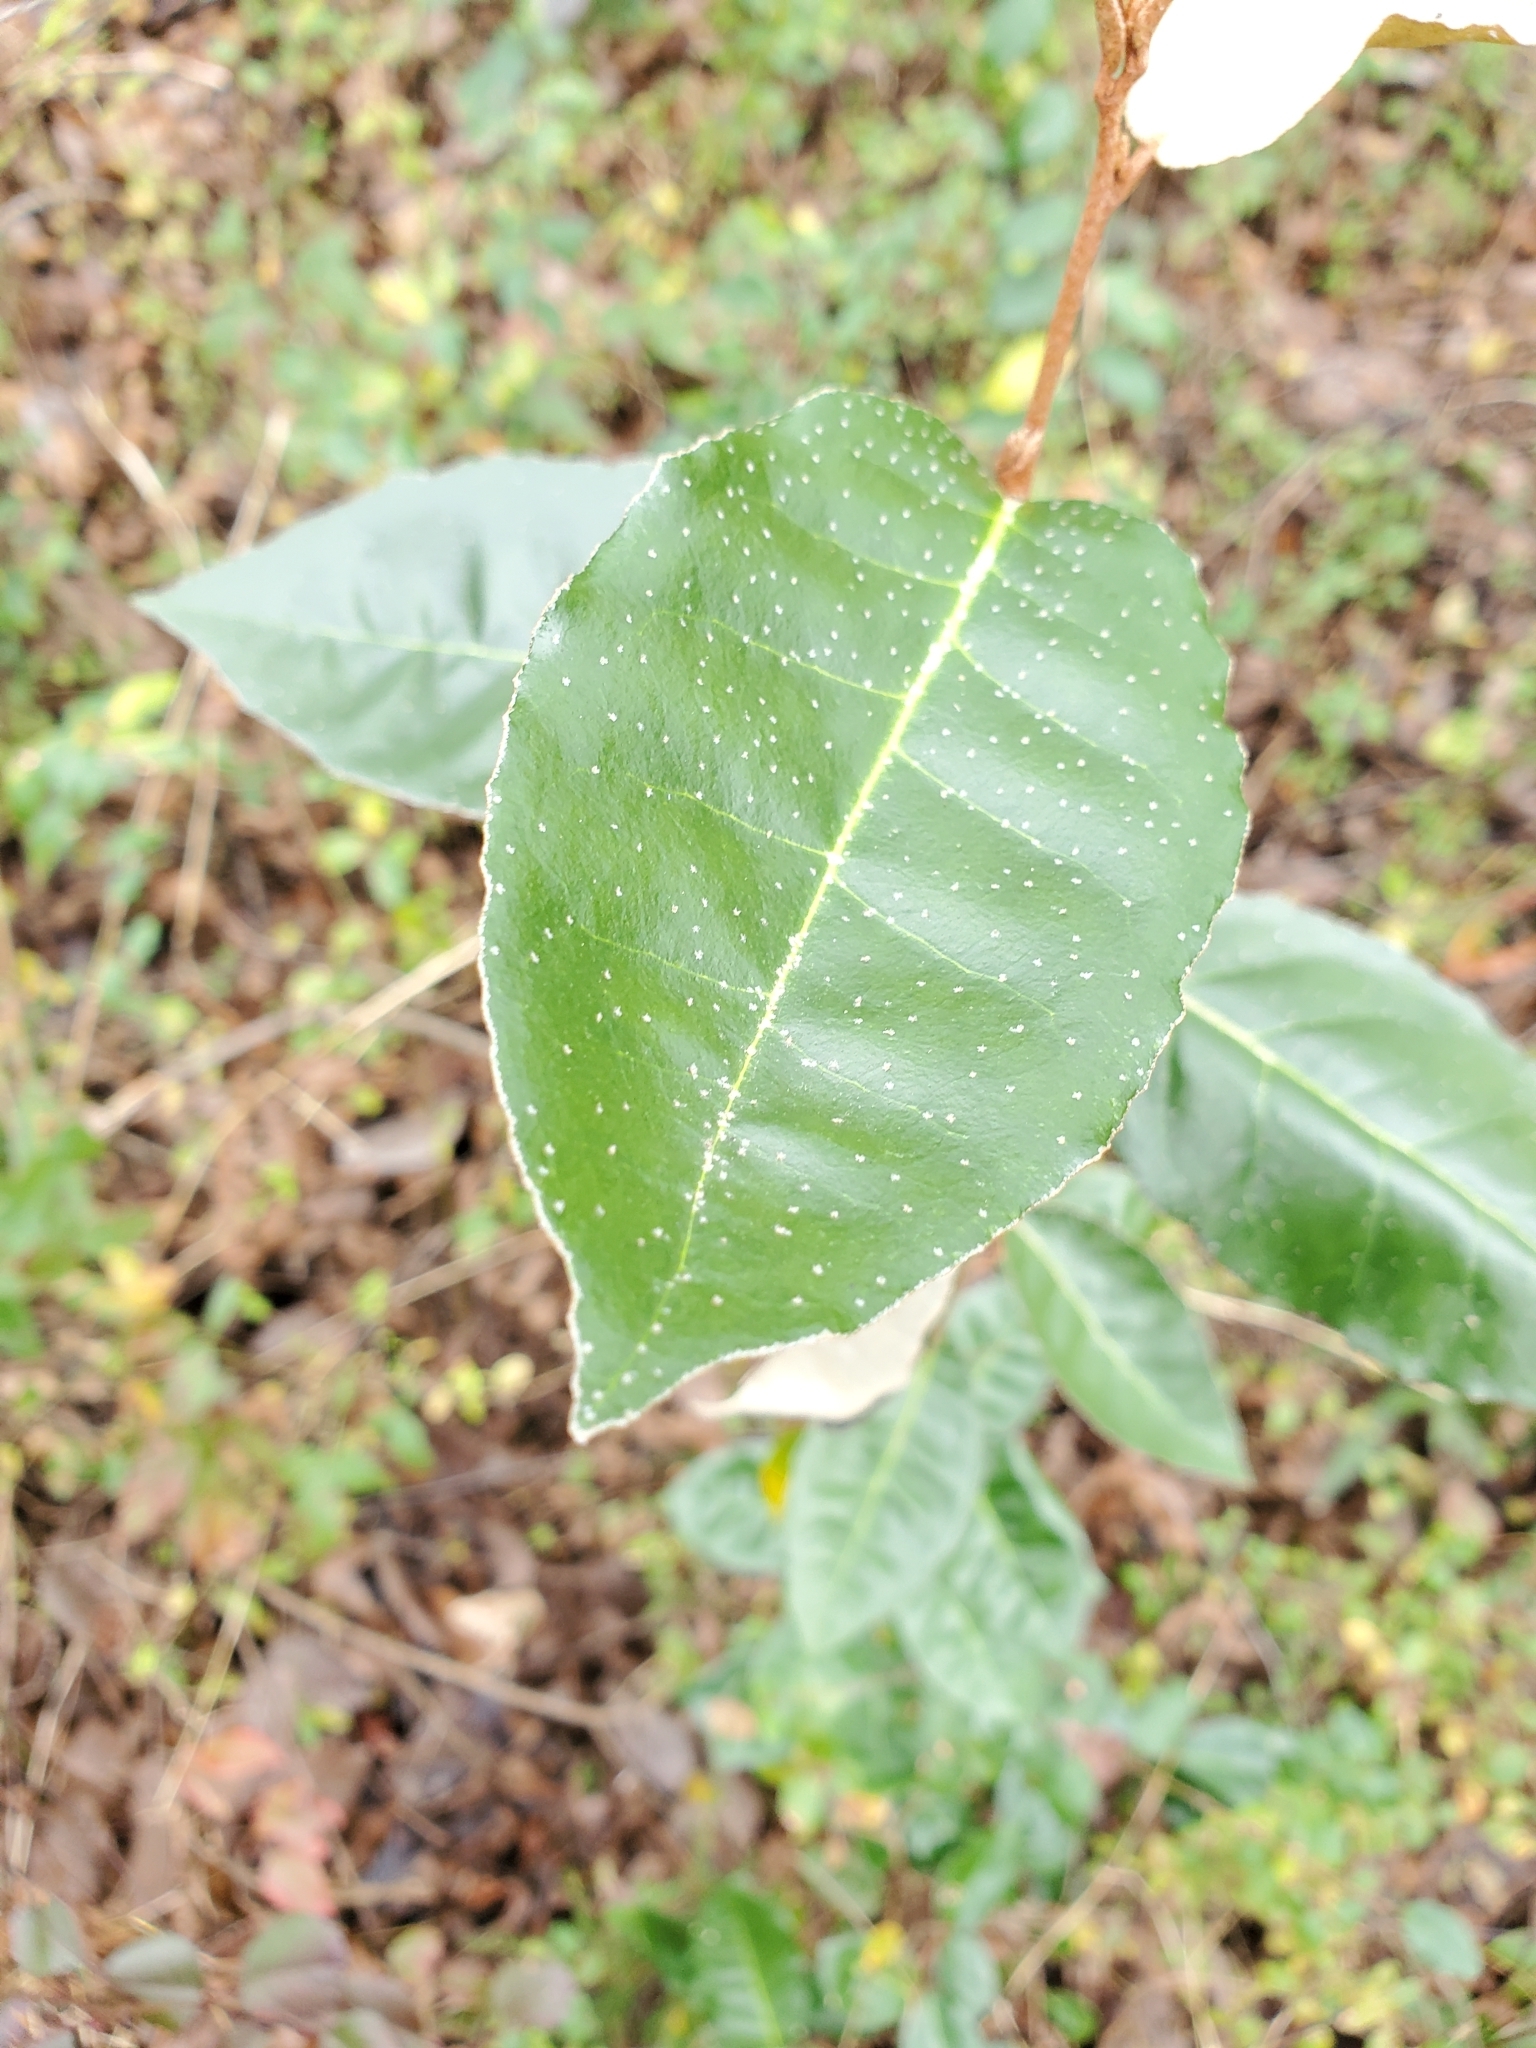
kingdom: Plantae
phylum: Tracheophyta
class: Magnoliopsida
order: Rosales
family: Elaeagnaceae
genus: Elaeagnus
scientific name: Elaeagnus pungens
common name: Spiny oleaster
